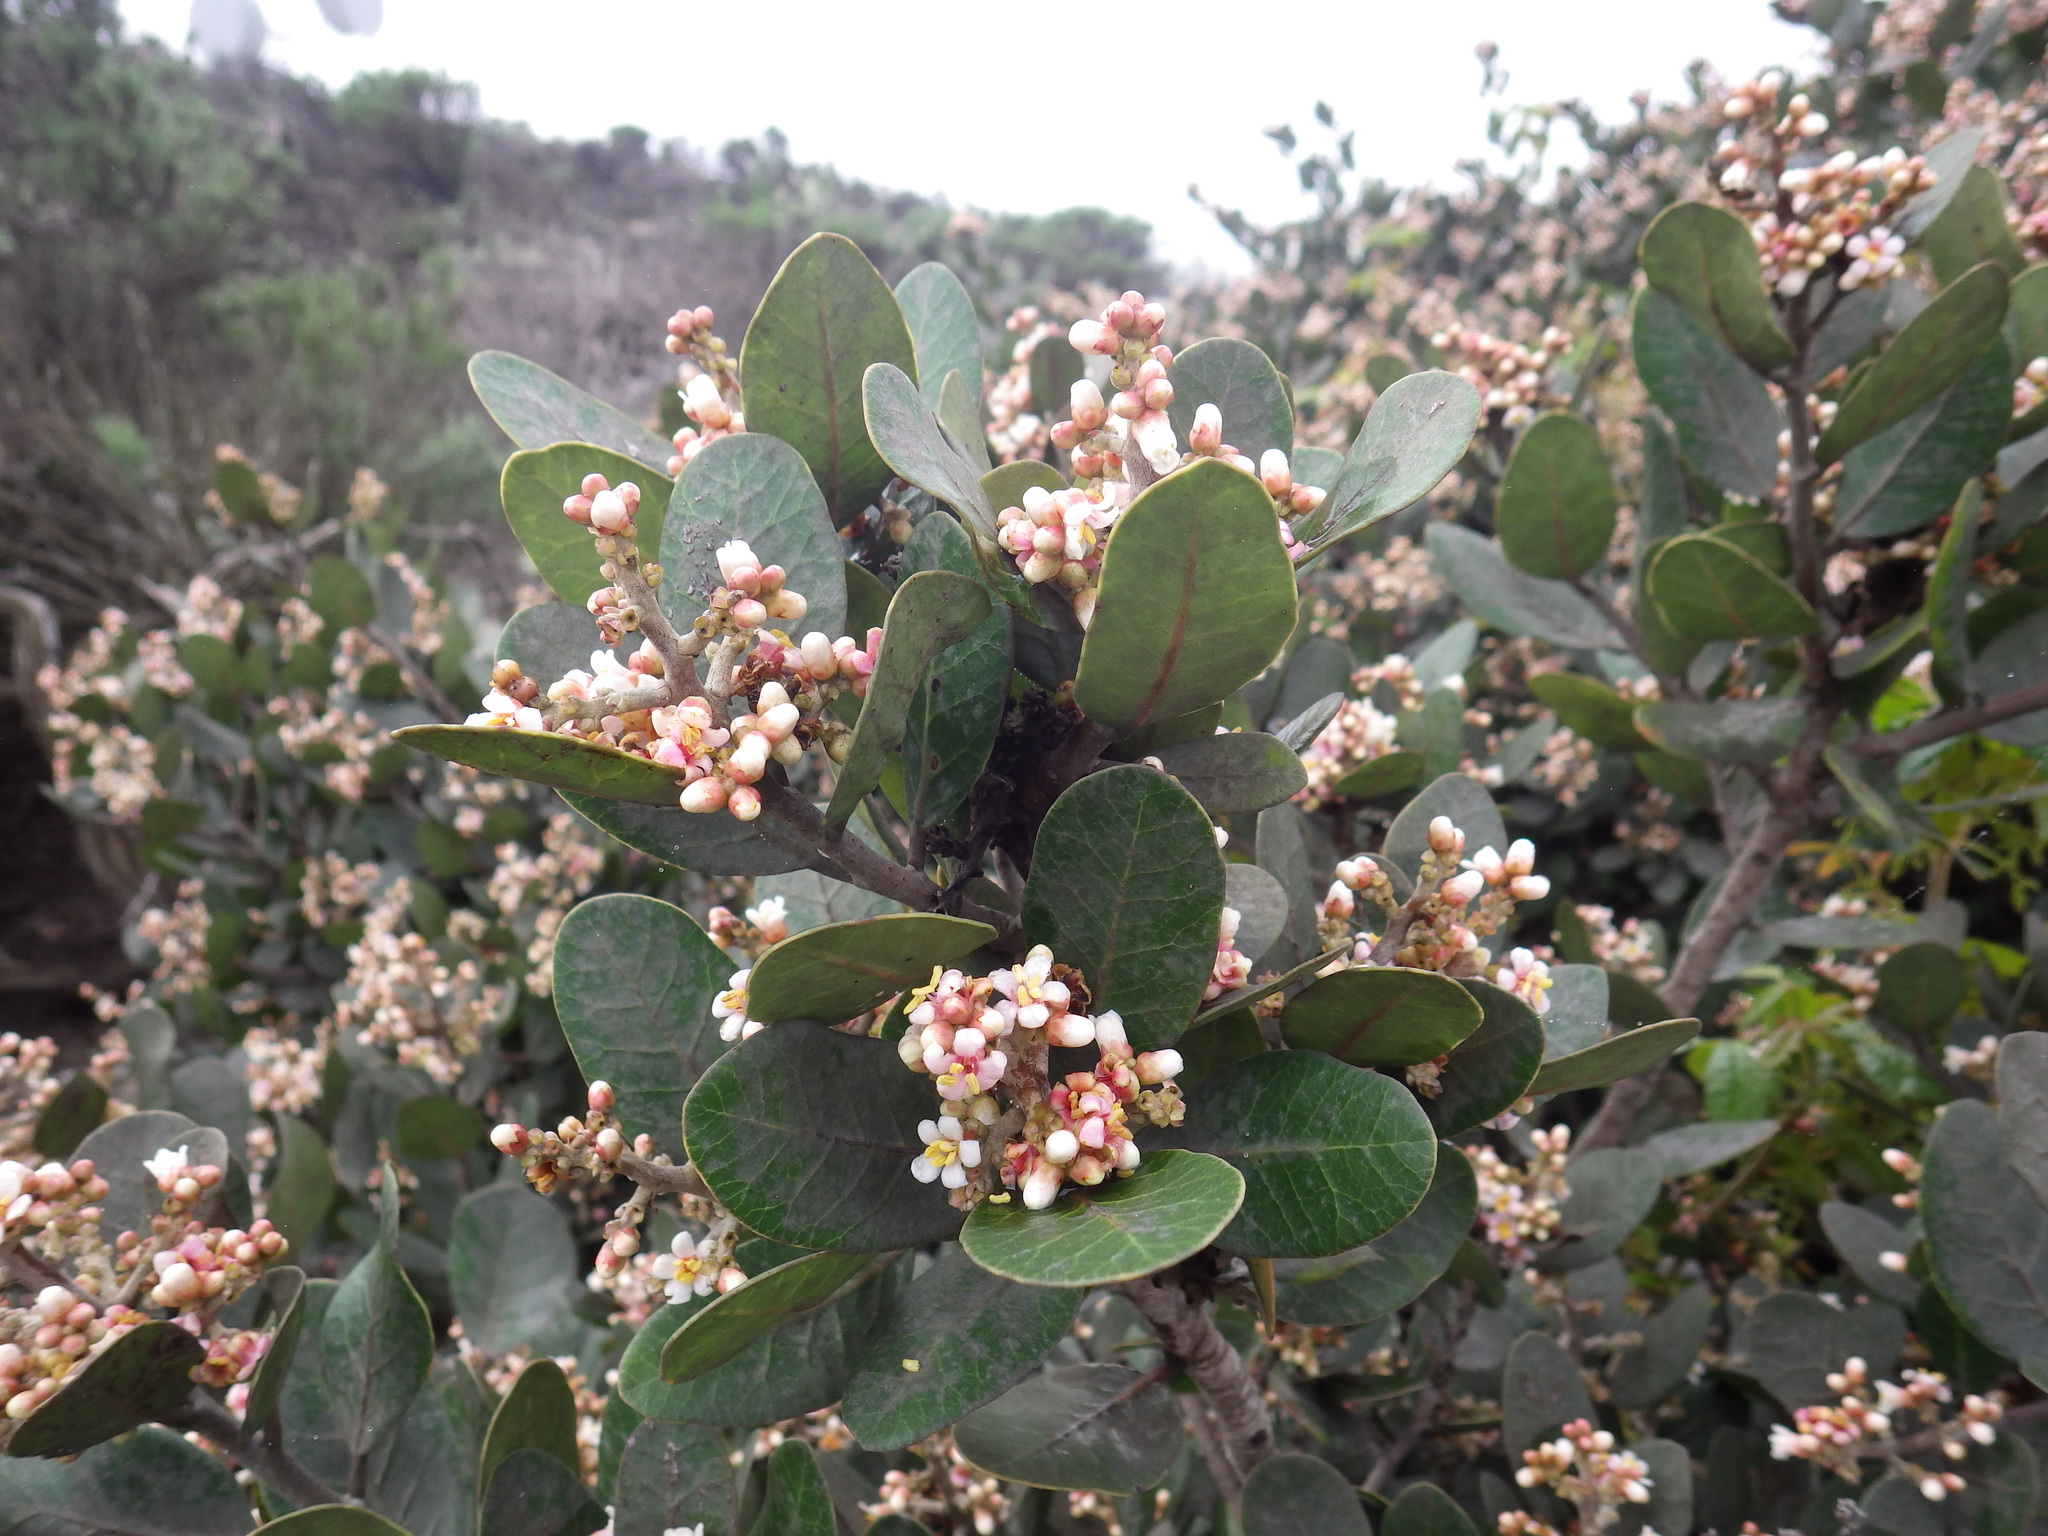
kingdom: Plantae
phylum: Tracheophyta
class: Magnoliopsida
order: Sapindales
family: Anacardiaceae
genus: Rhus
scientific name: Rhus integrifolia
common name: Lemonade sumac
